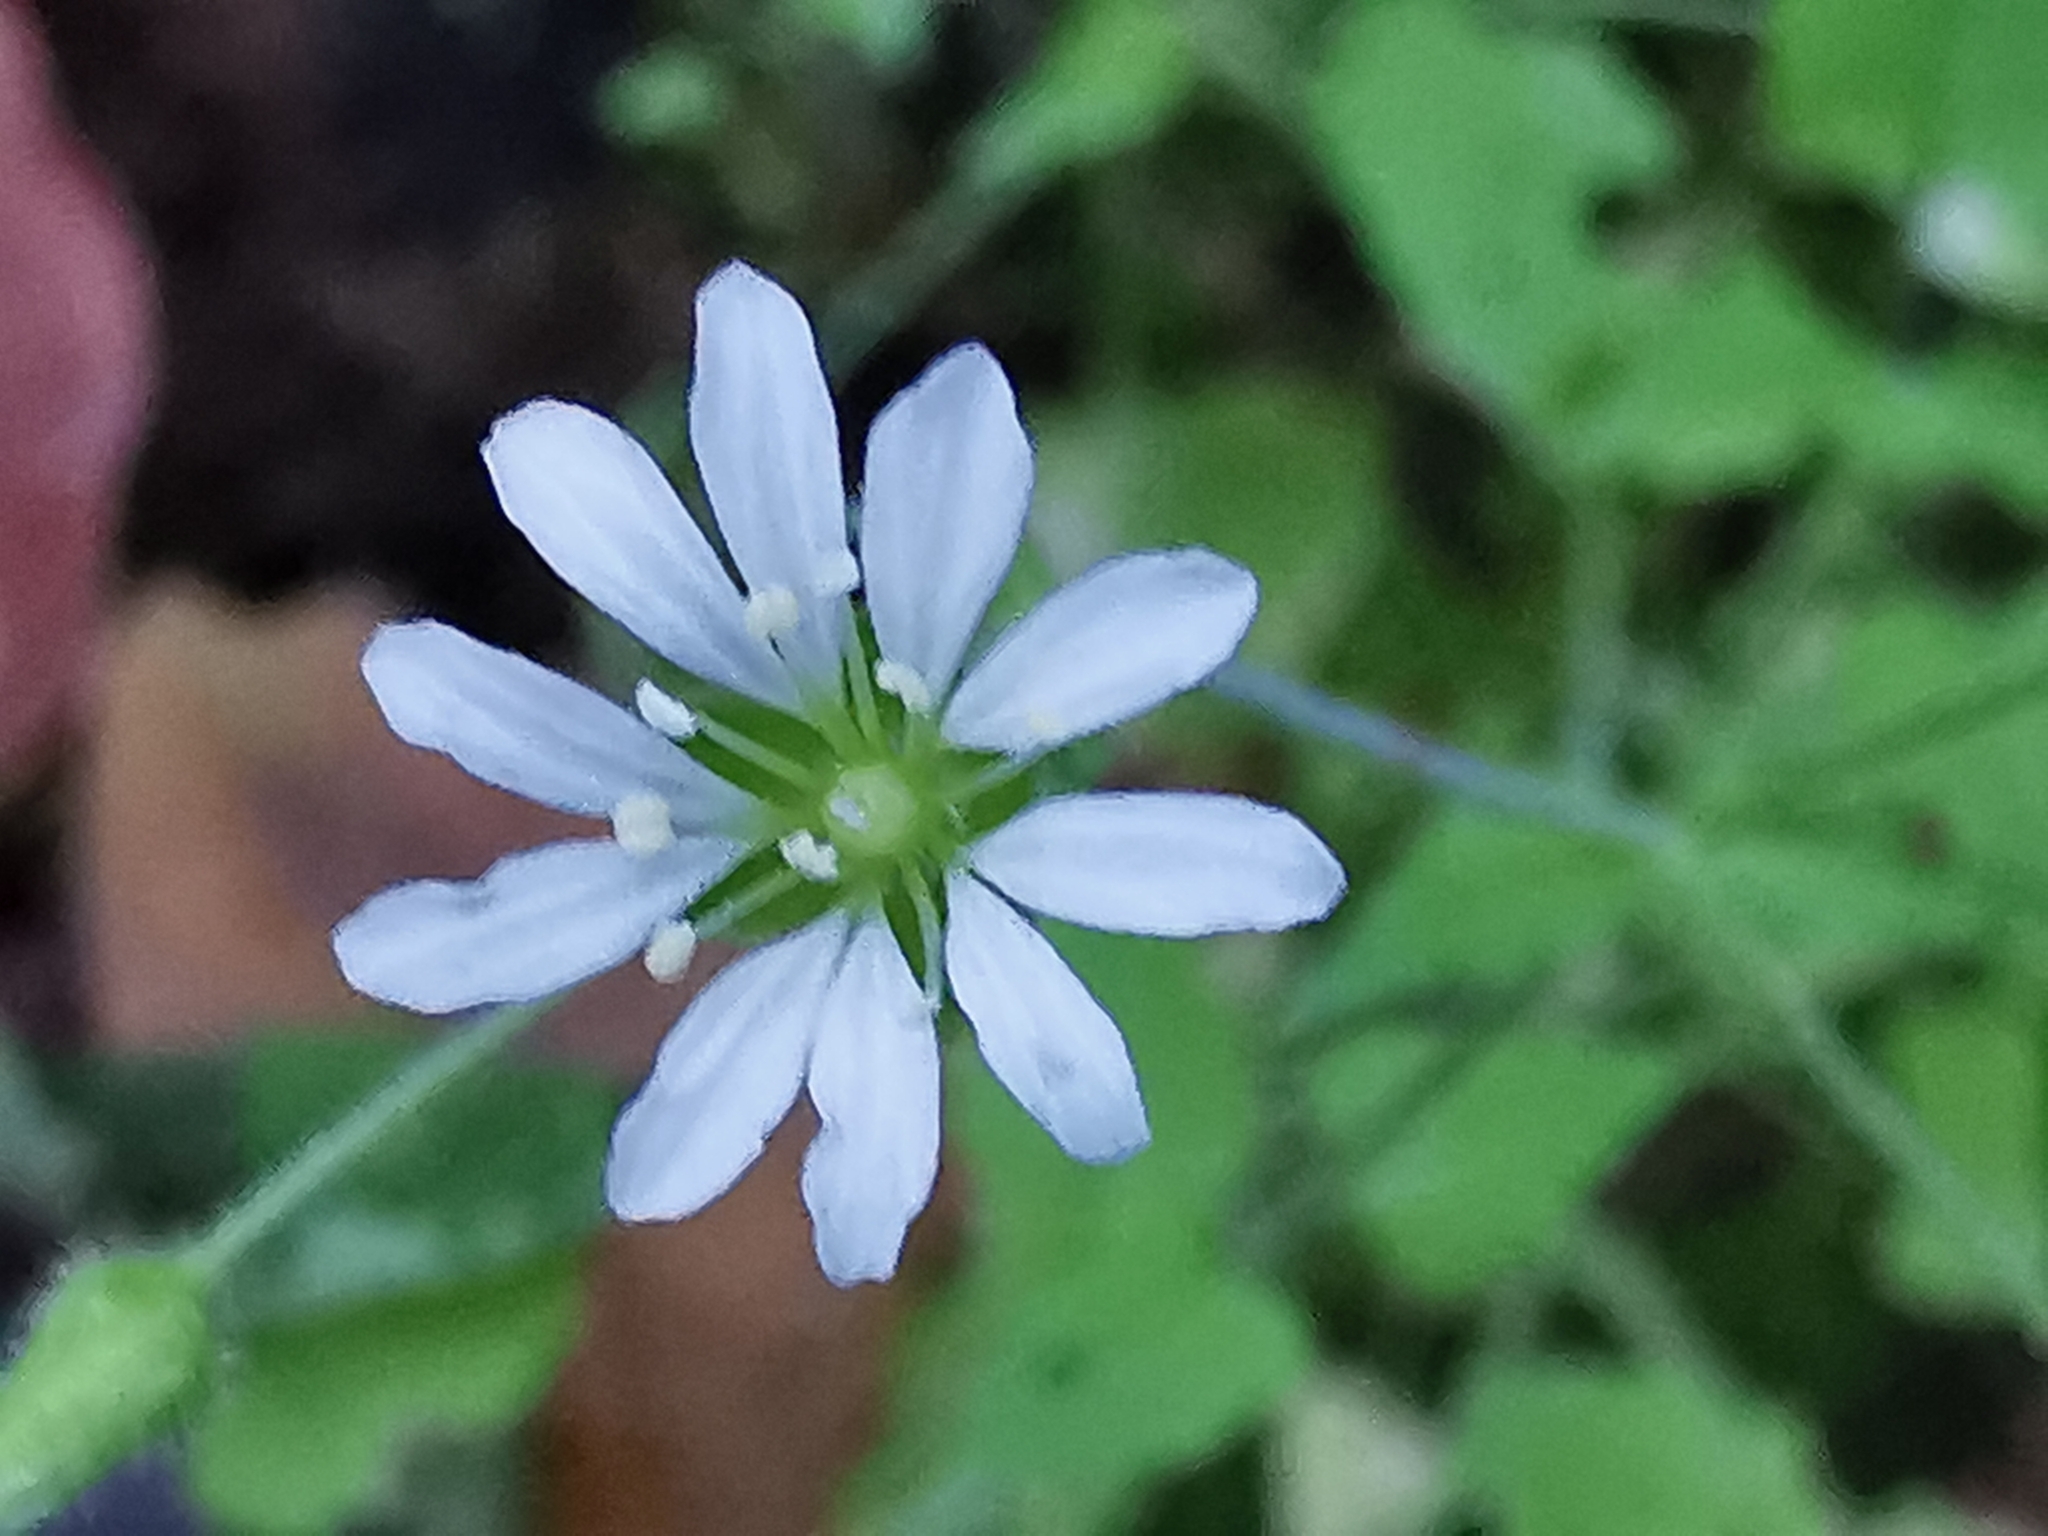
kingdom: Plantae
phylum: Tracheophyta
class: Magnoliopsida
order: Caryophyllales
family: Caryophyllaceae
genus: Stellaria
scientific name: Stellaria cuspidata
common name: Mexican chickweed
